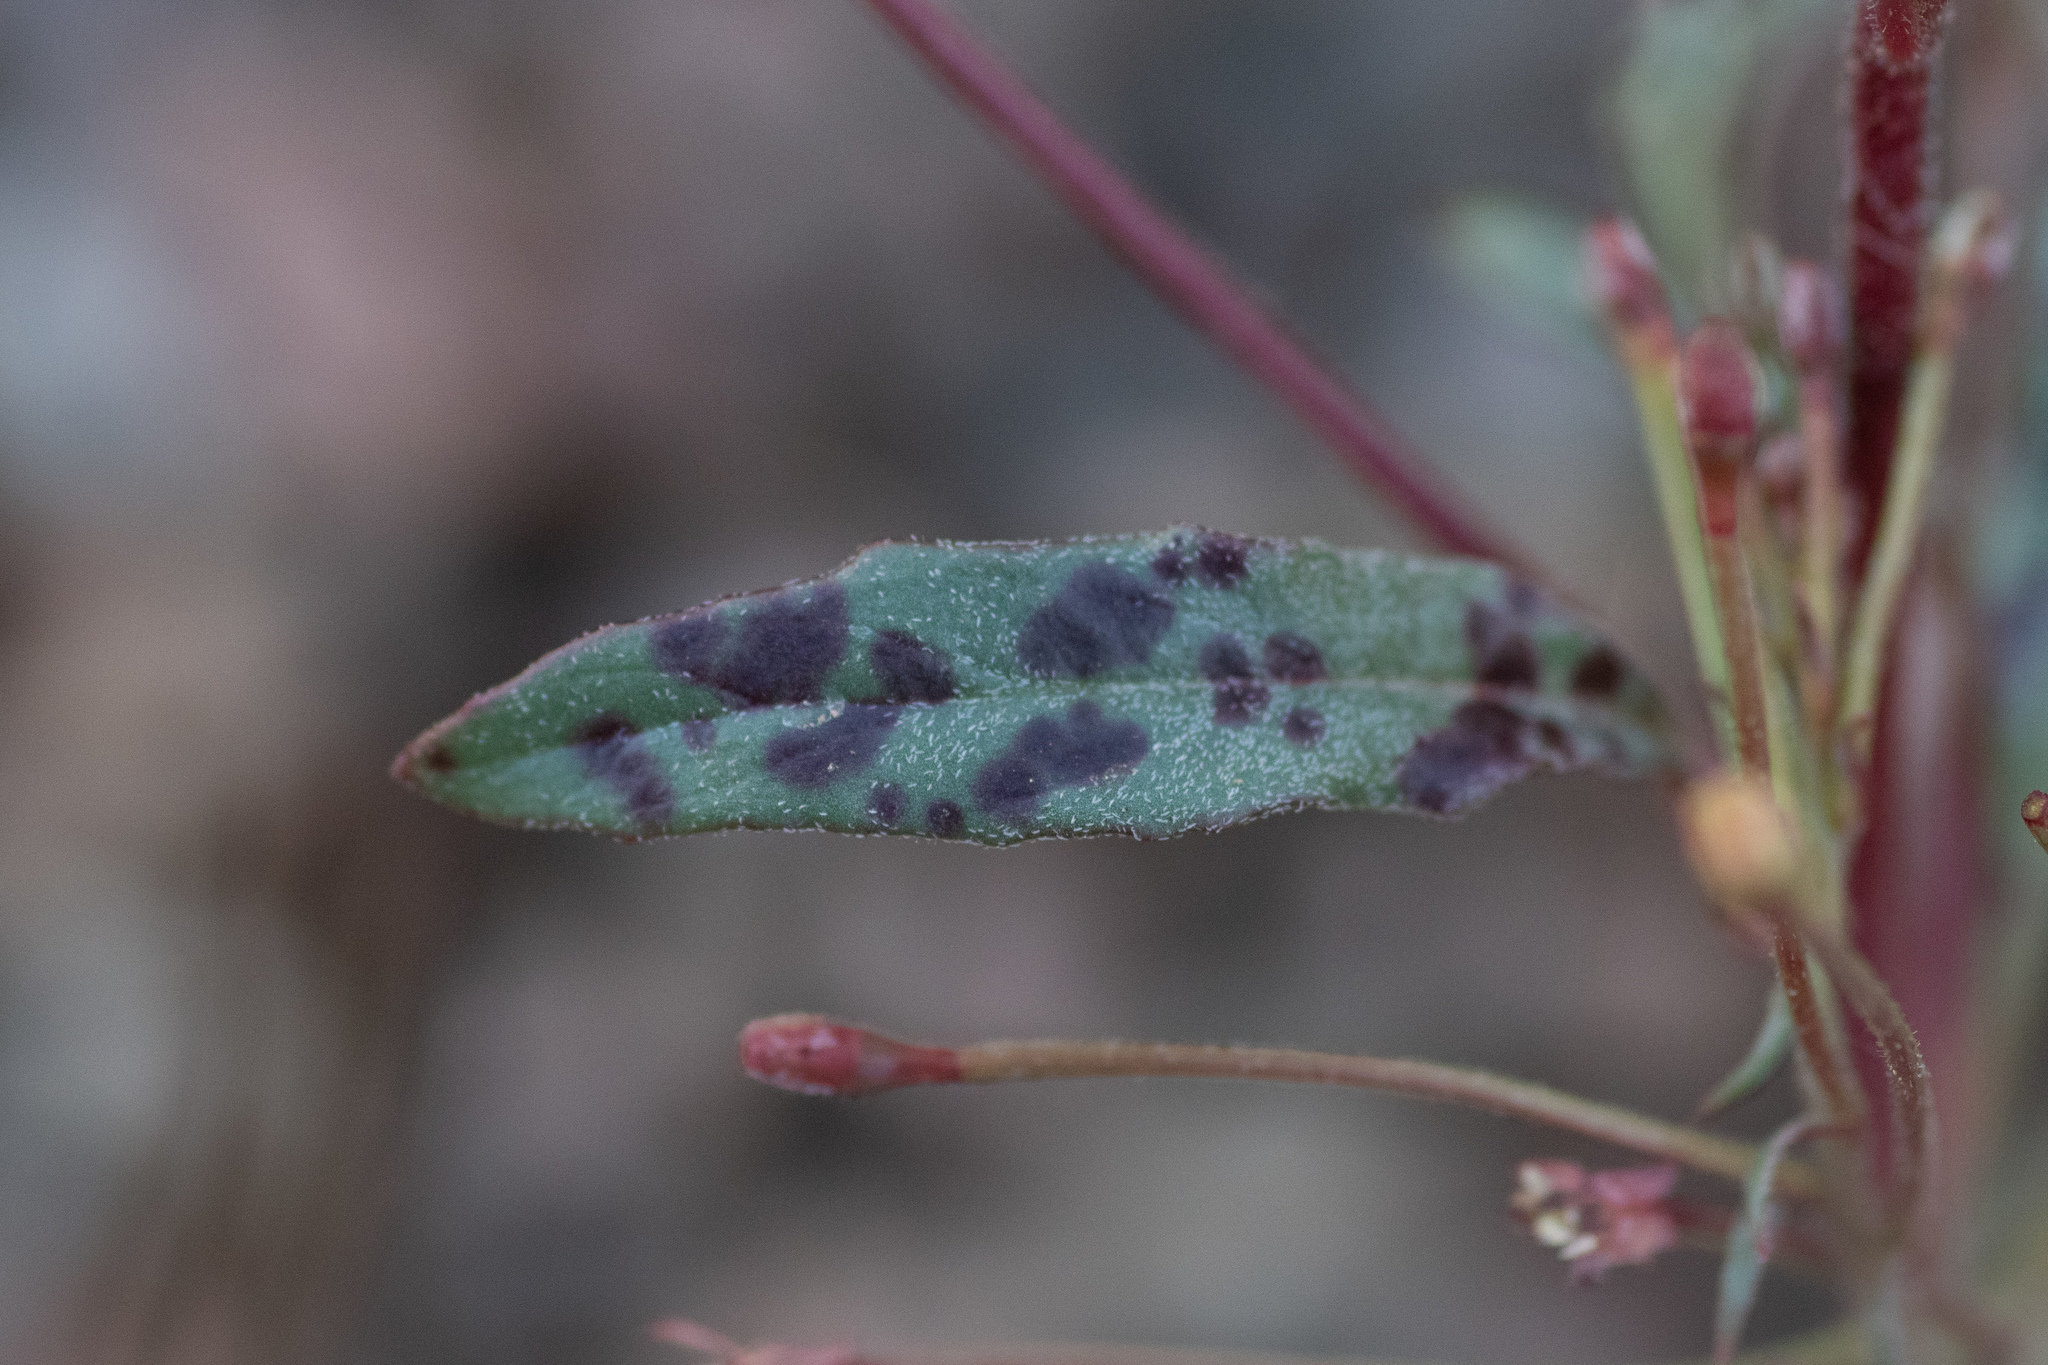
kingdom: Plantae
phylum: Tracheophyta
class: Magnoliopsida
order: Myrtales
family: Onagraceae
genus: Eremothera
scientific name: Eremothera chamaenerioides
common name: Longcapsule suncup
